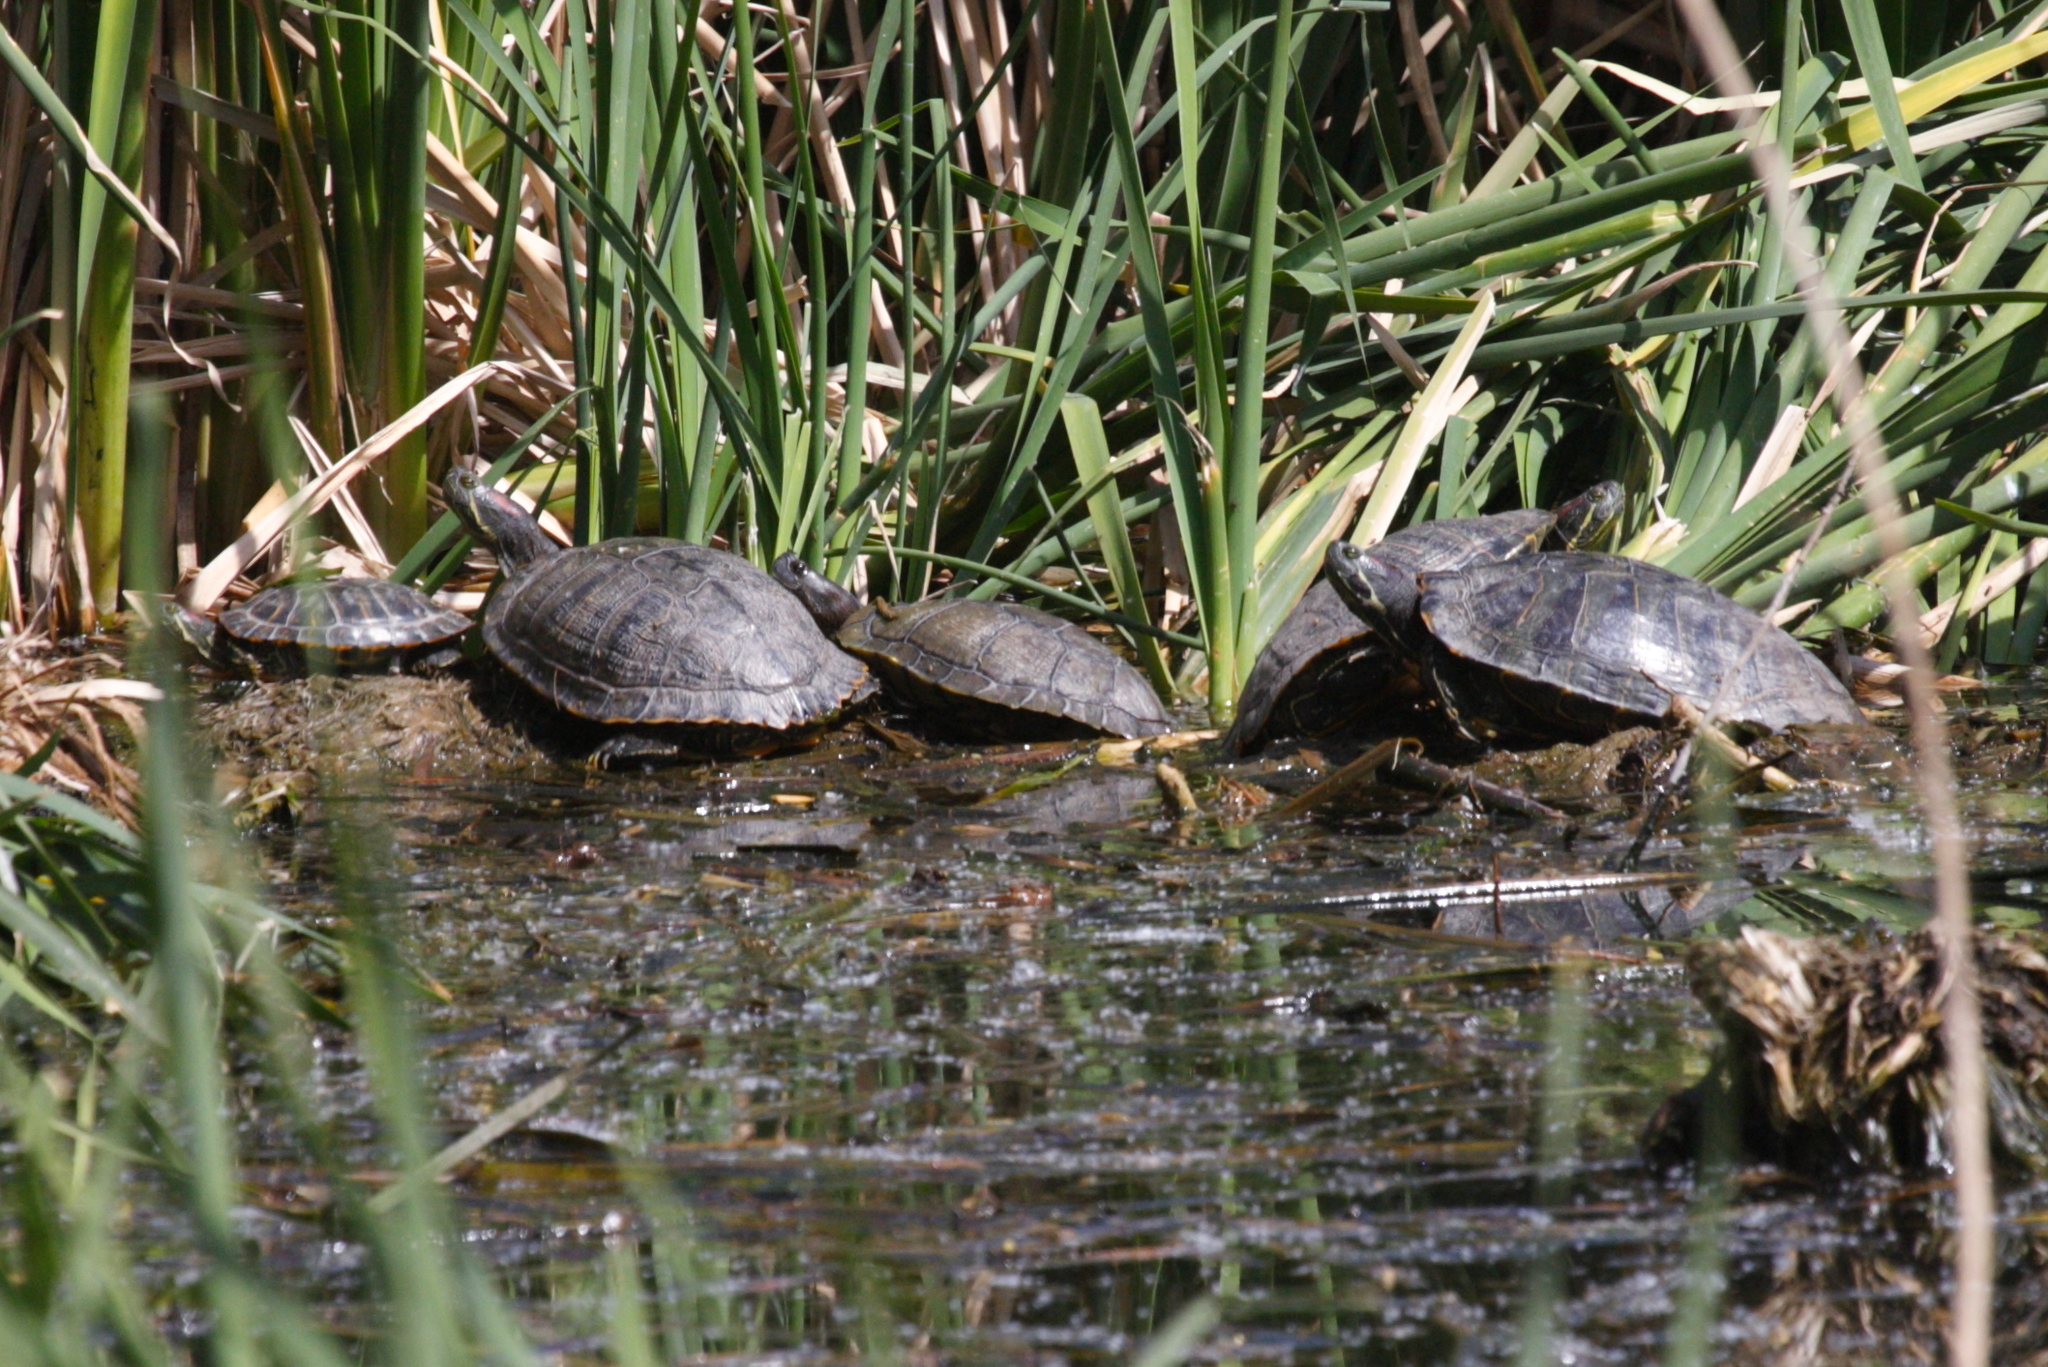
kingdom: Animalia
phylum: Chordata
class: Testudines
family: Emydidae
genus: Trachemys
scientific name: Trachemys scripta
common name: Slider
